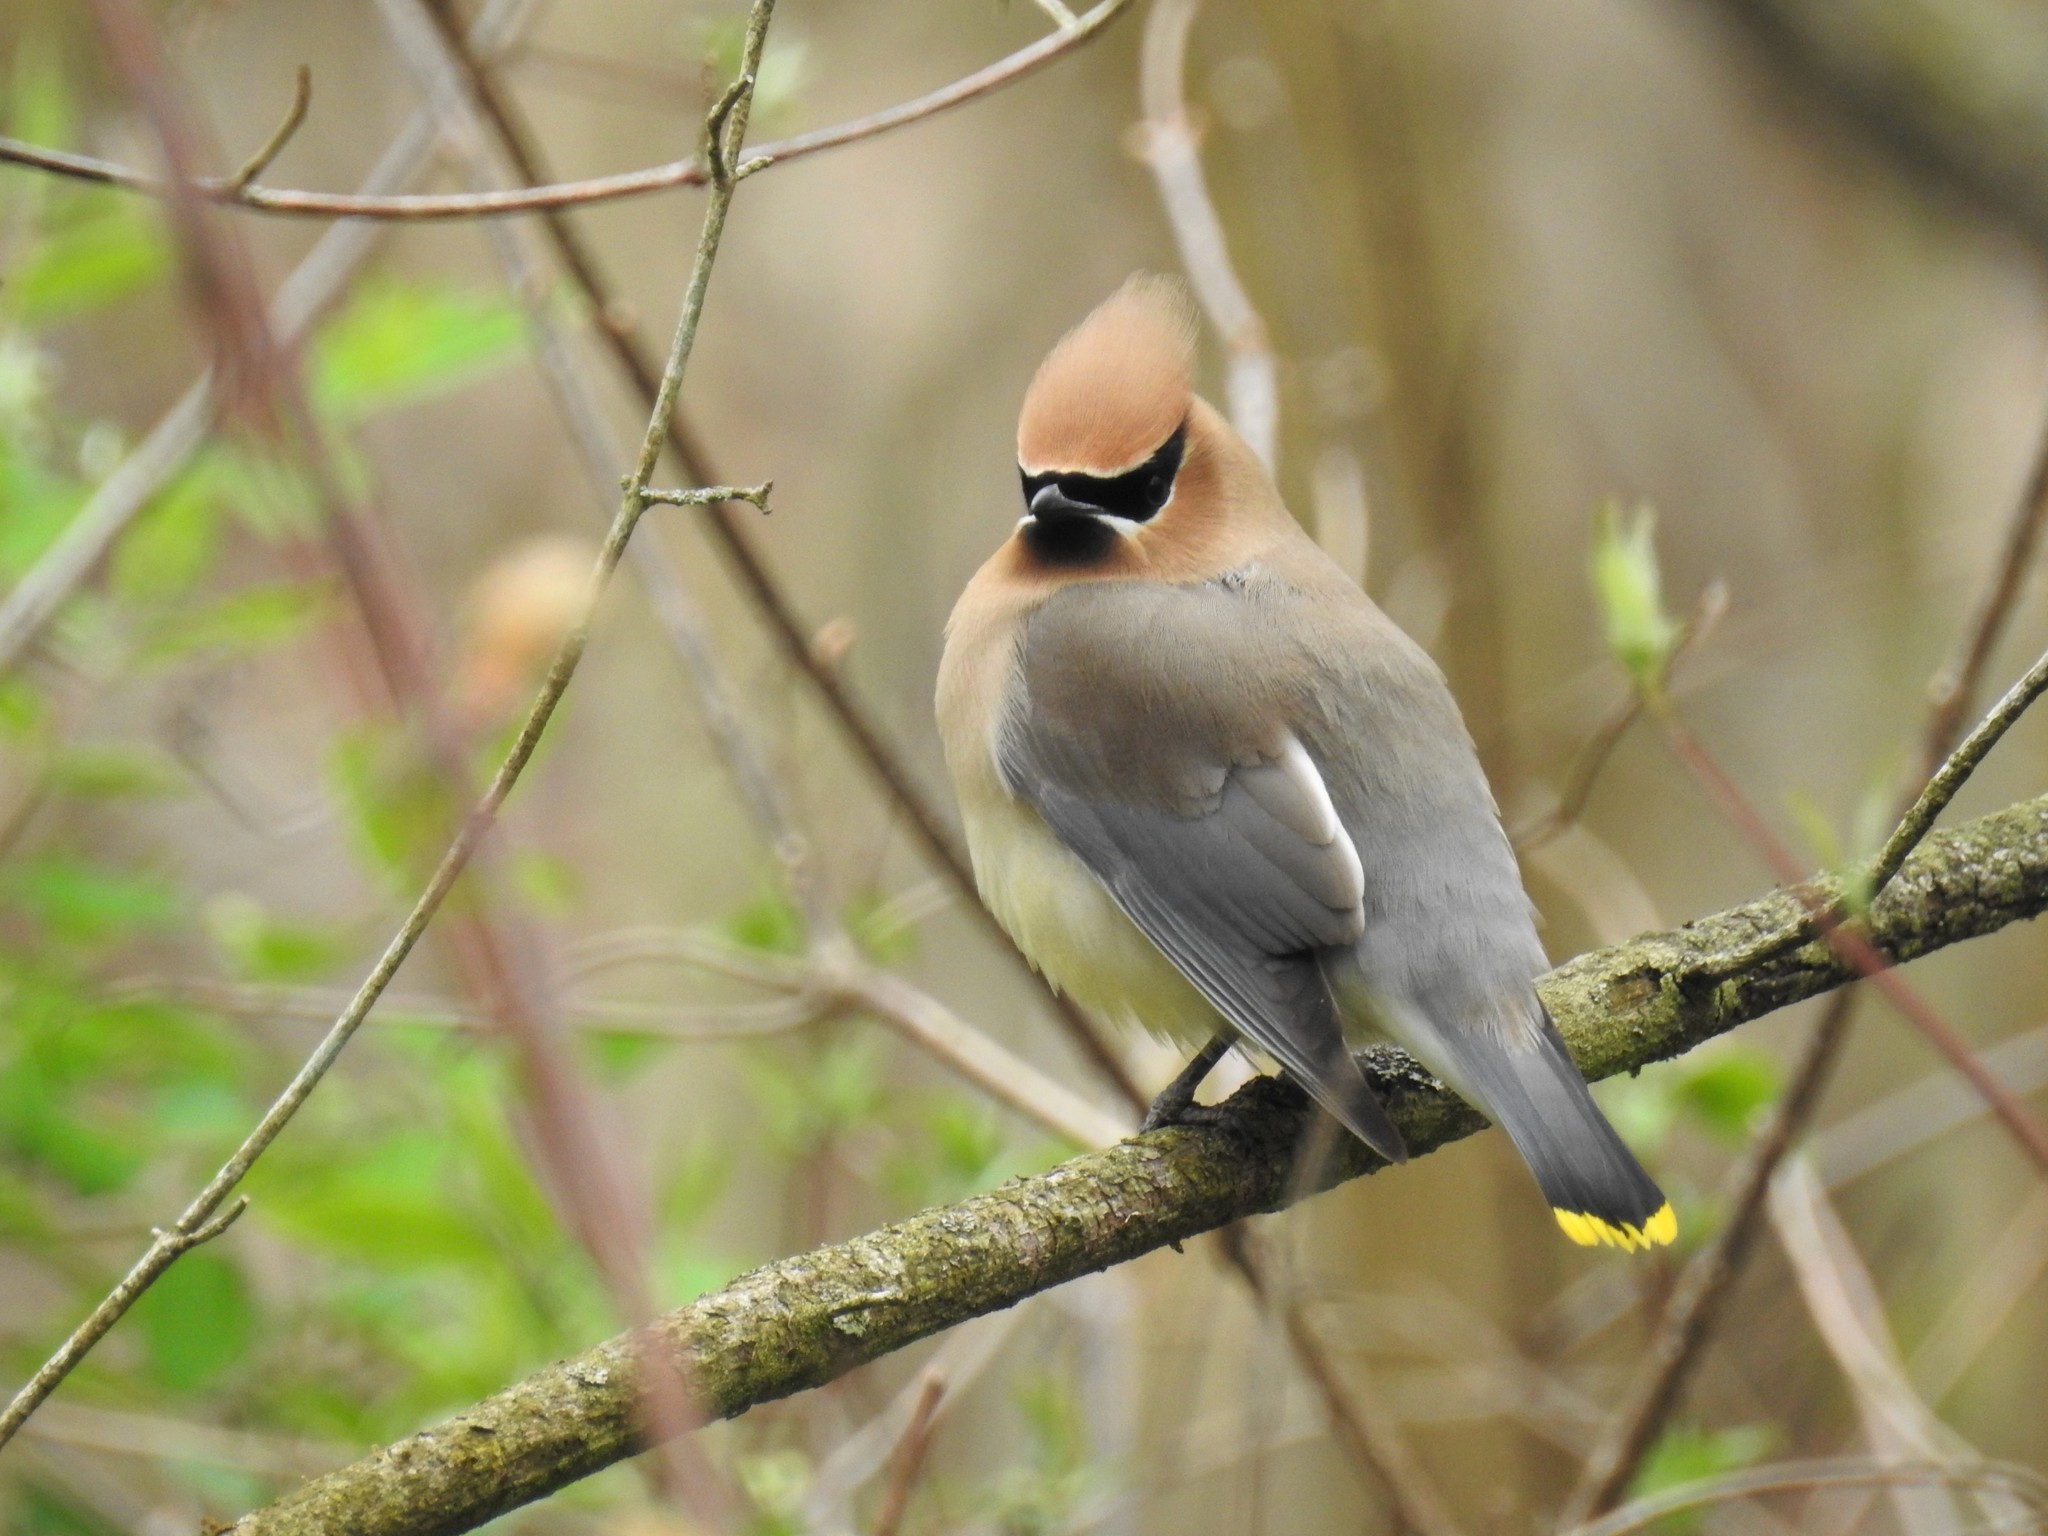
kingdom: Animalia
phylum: Chordata
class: Aves
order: Passeriformes
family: Bombycillidae
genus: Bombycilla
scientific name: Bombycilla cedrorum
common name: Cedar waxwing
